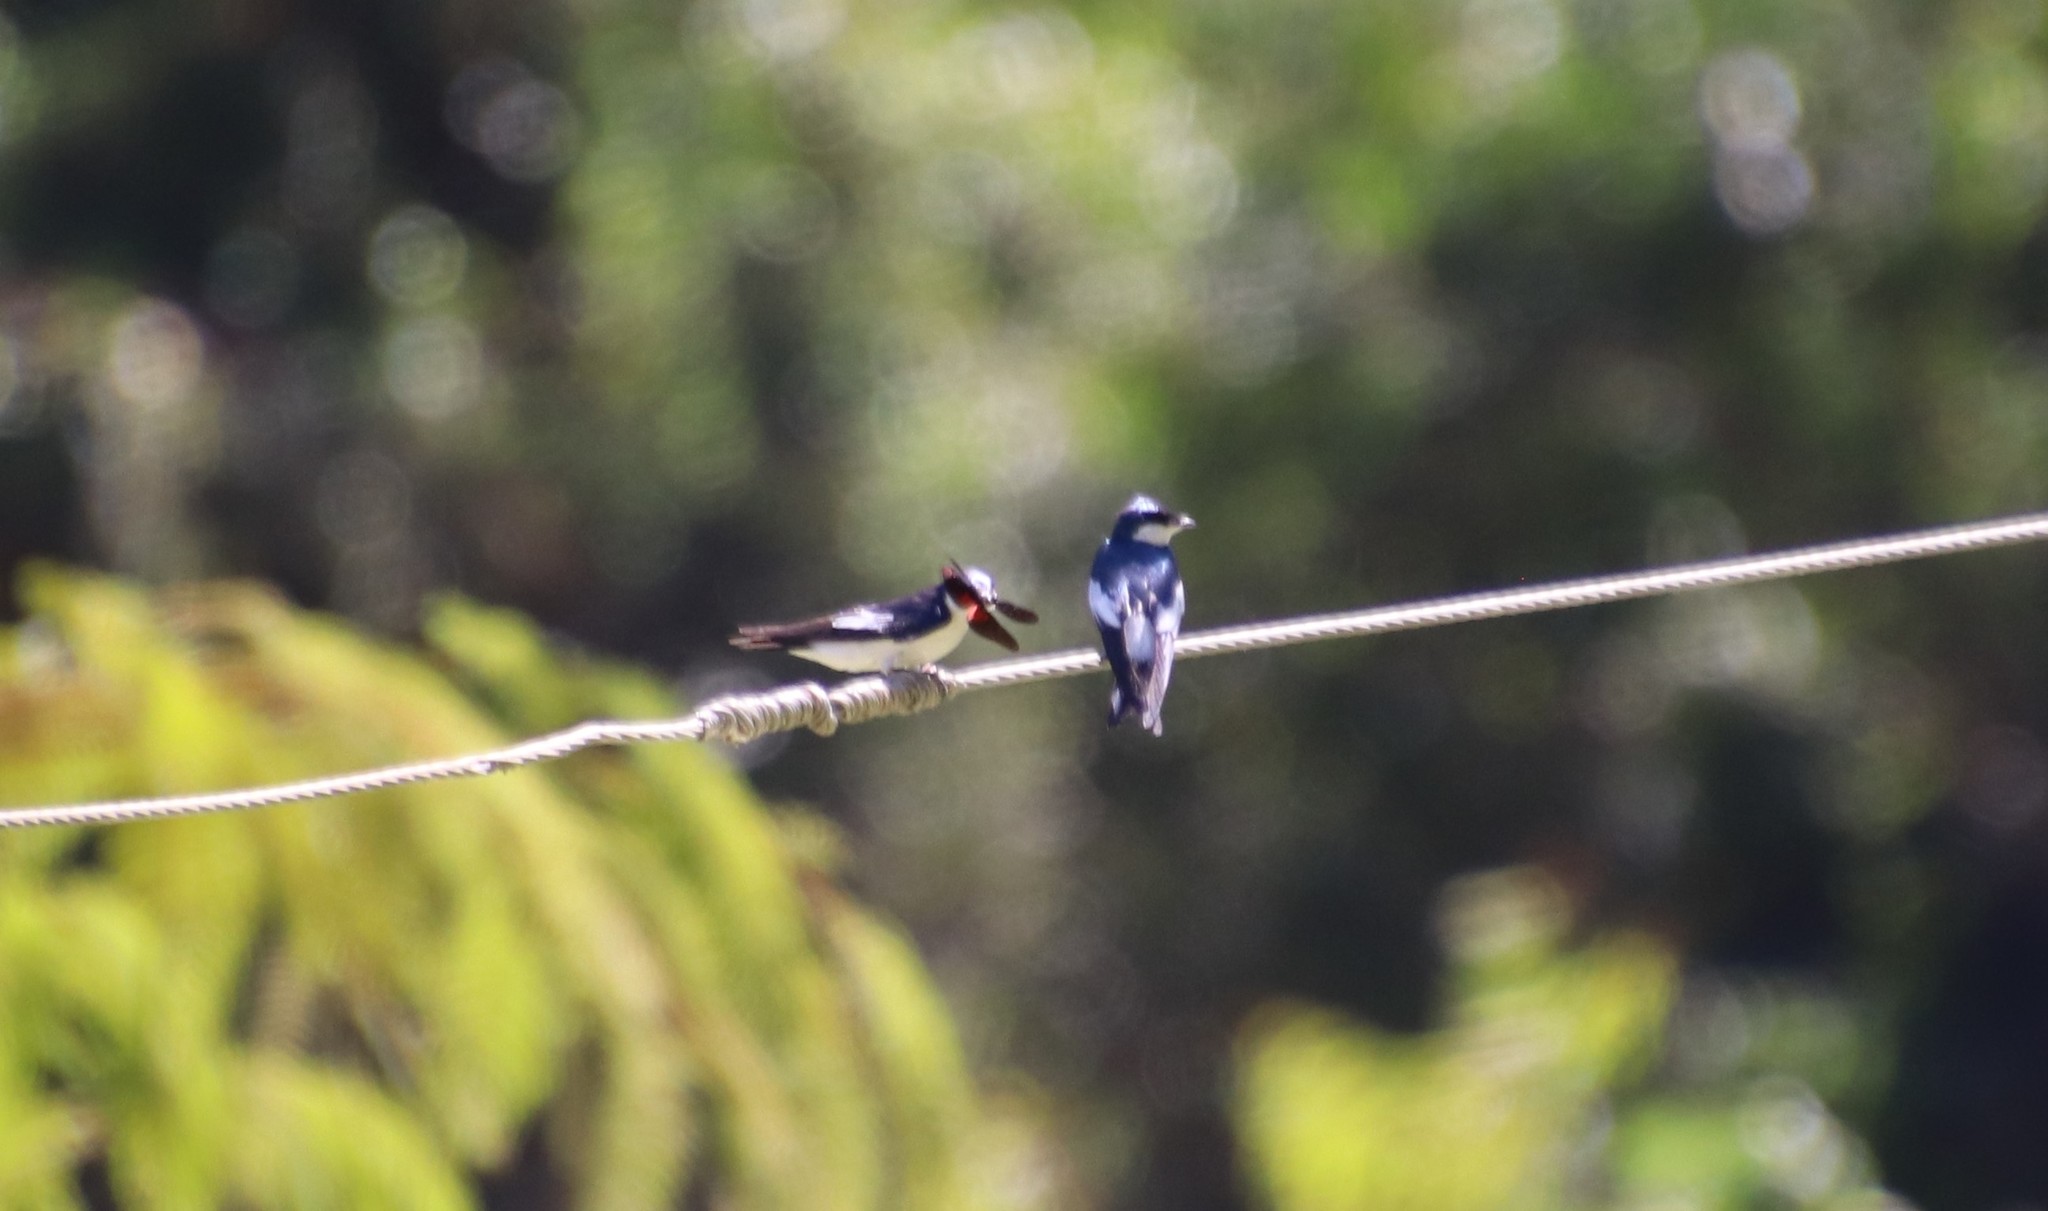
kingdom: Animalia
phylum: Chordata
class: Aves
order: Passeriformes
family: Hirundinidae
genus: Tachycineta
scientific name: Tachycineta albiventer
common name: White-winged swallow
